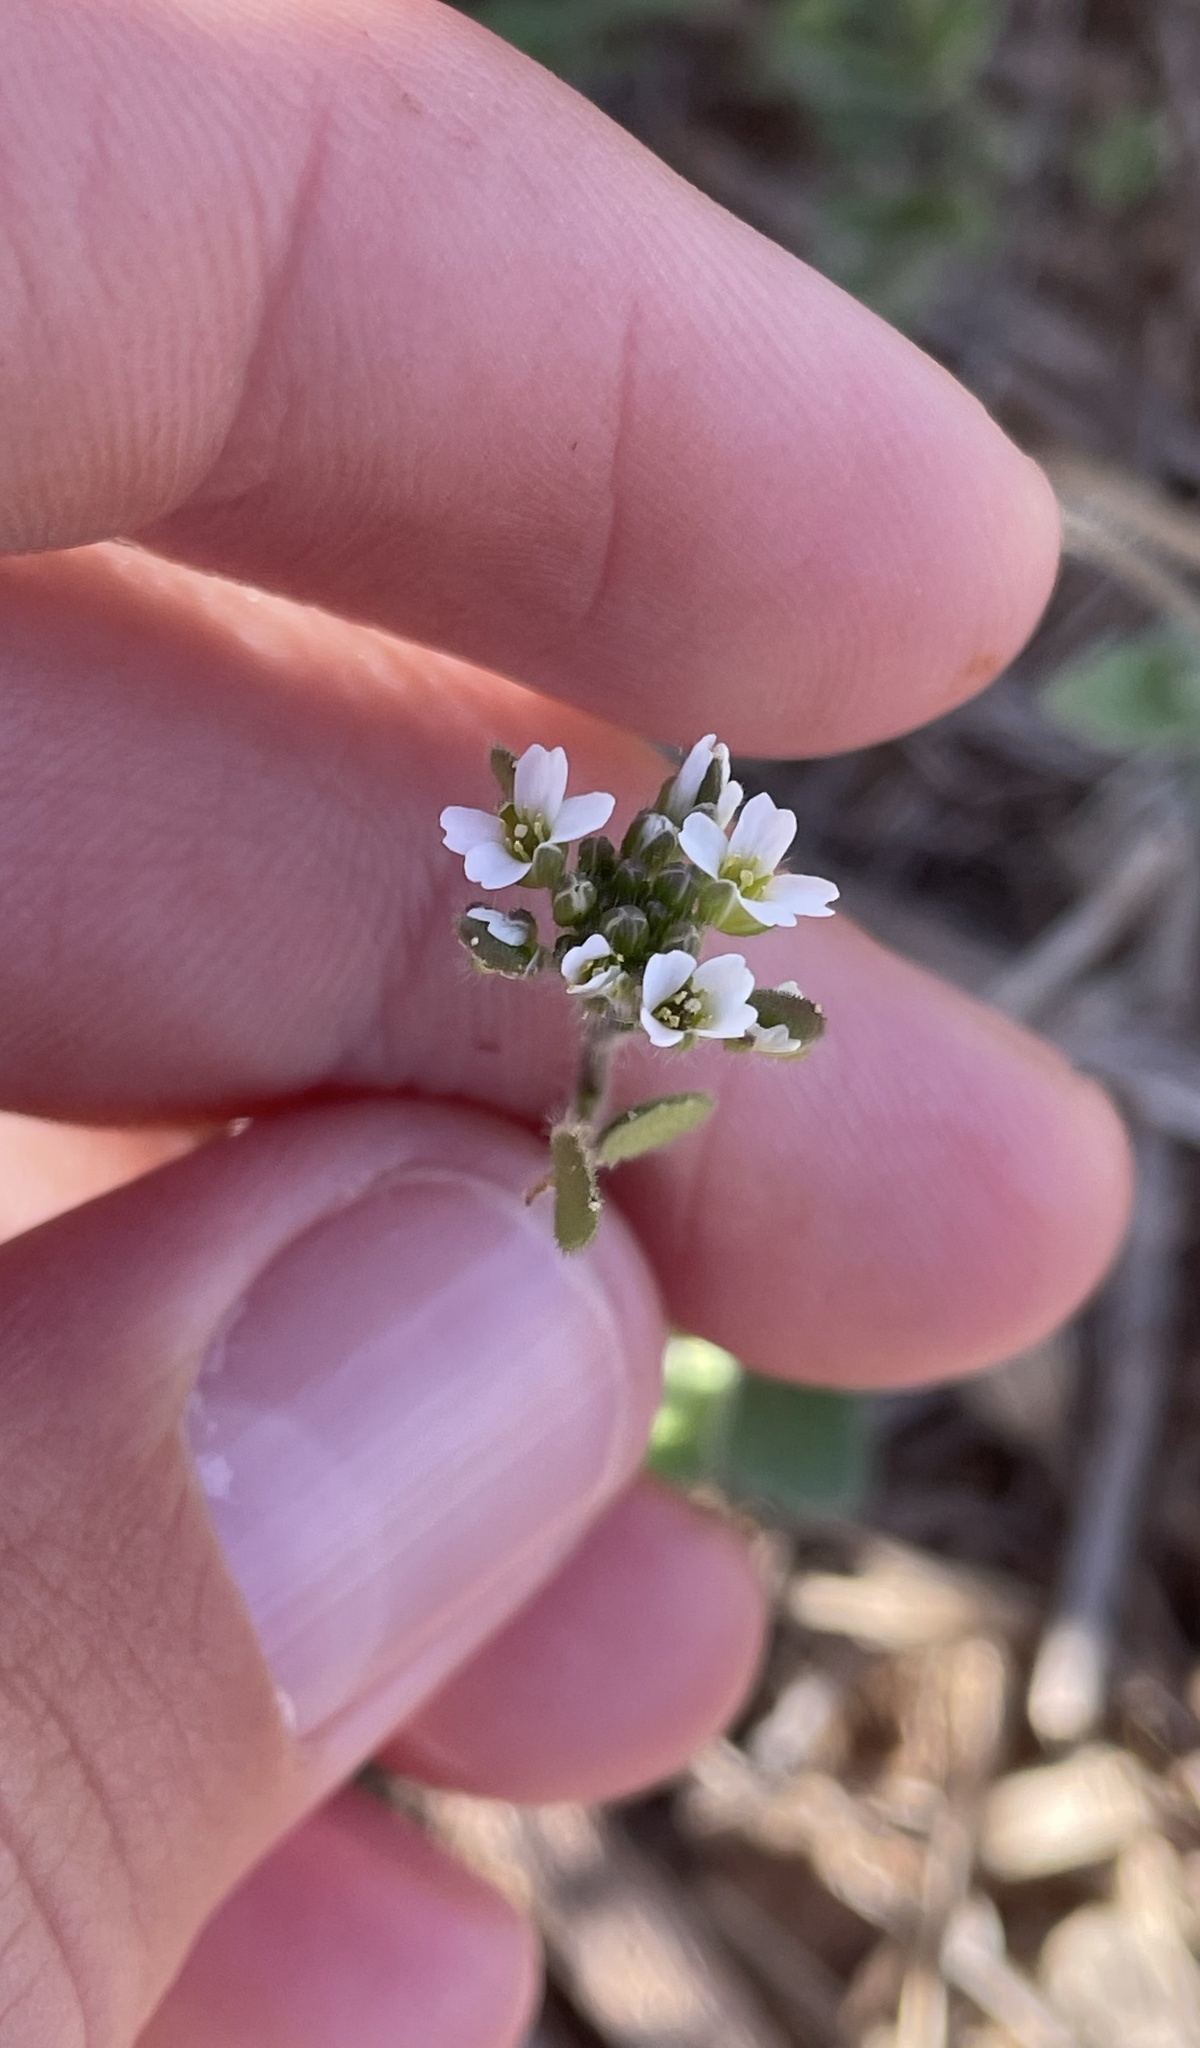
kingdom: Plantae
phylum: Tracheophyta
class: Magnoliopsida
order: Brassicales
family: Brassicaceae
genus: Tomostima
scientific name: Tomostima platycarpa
